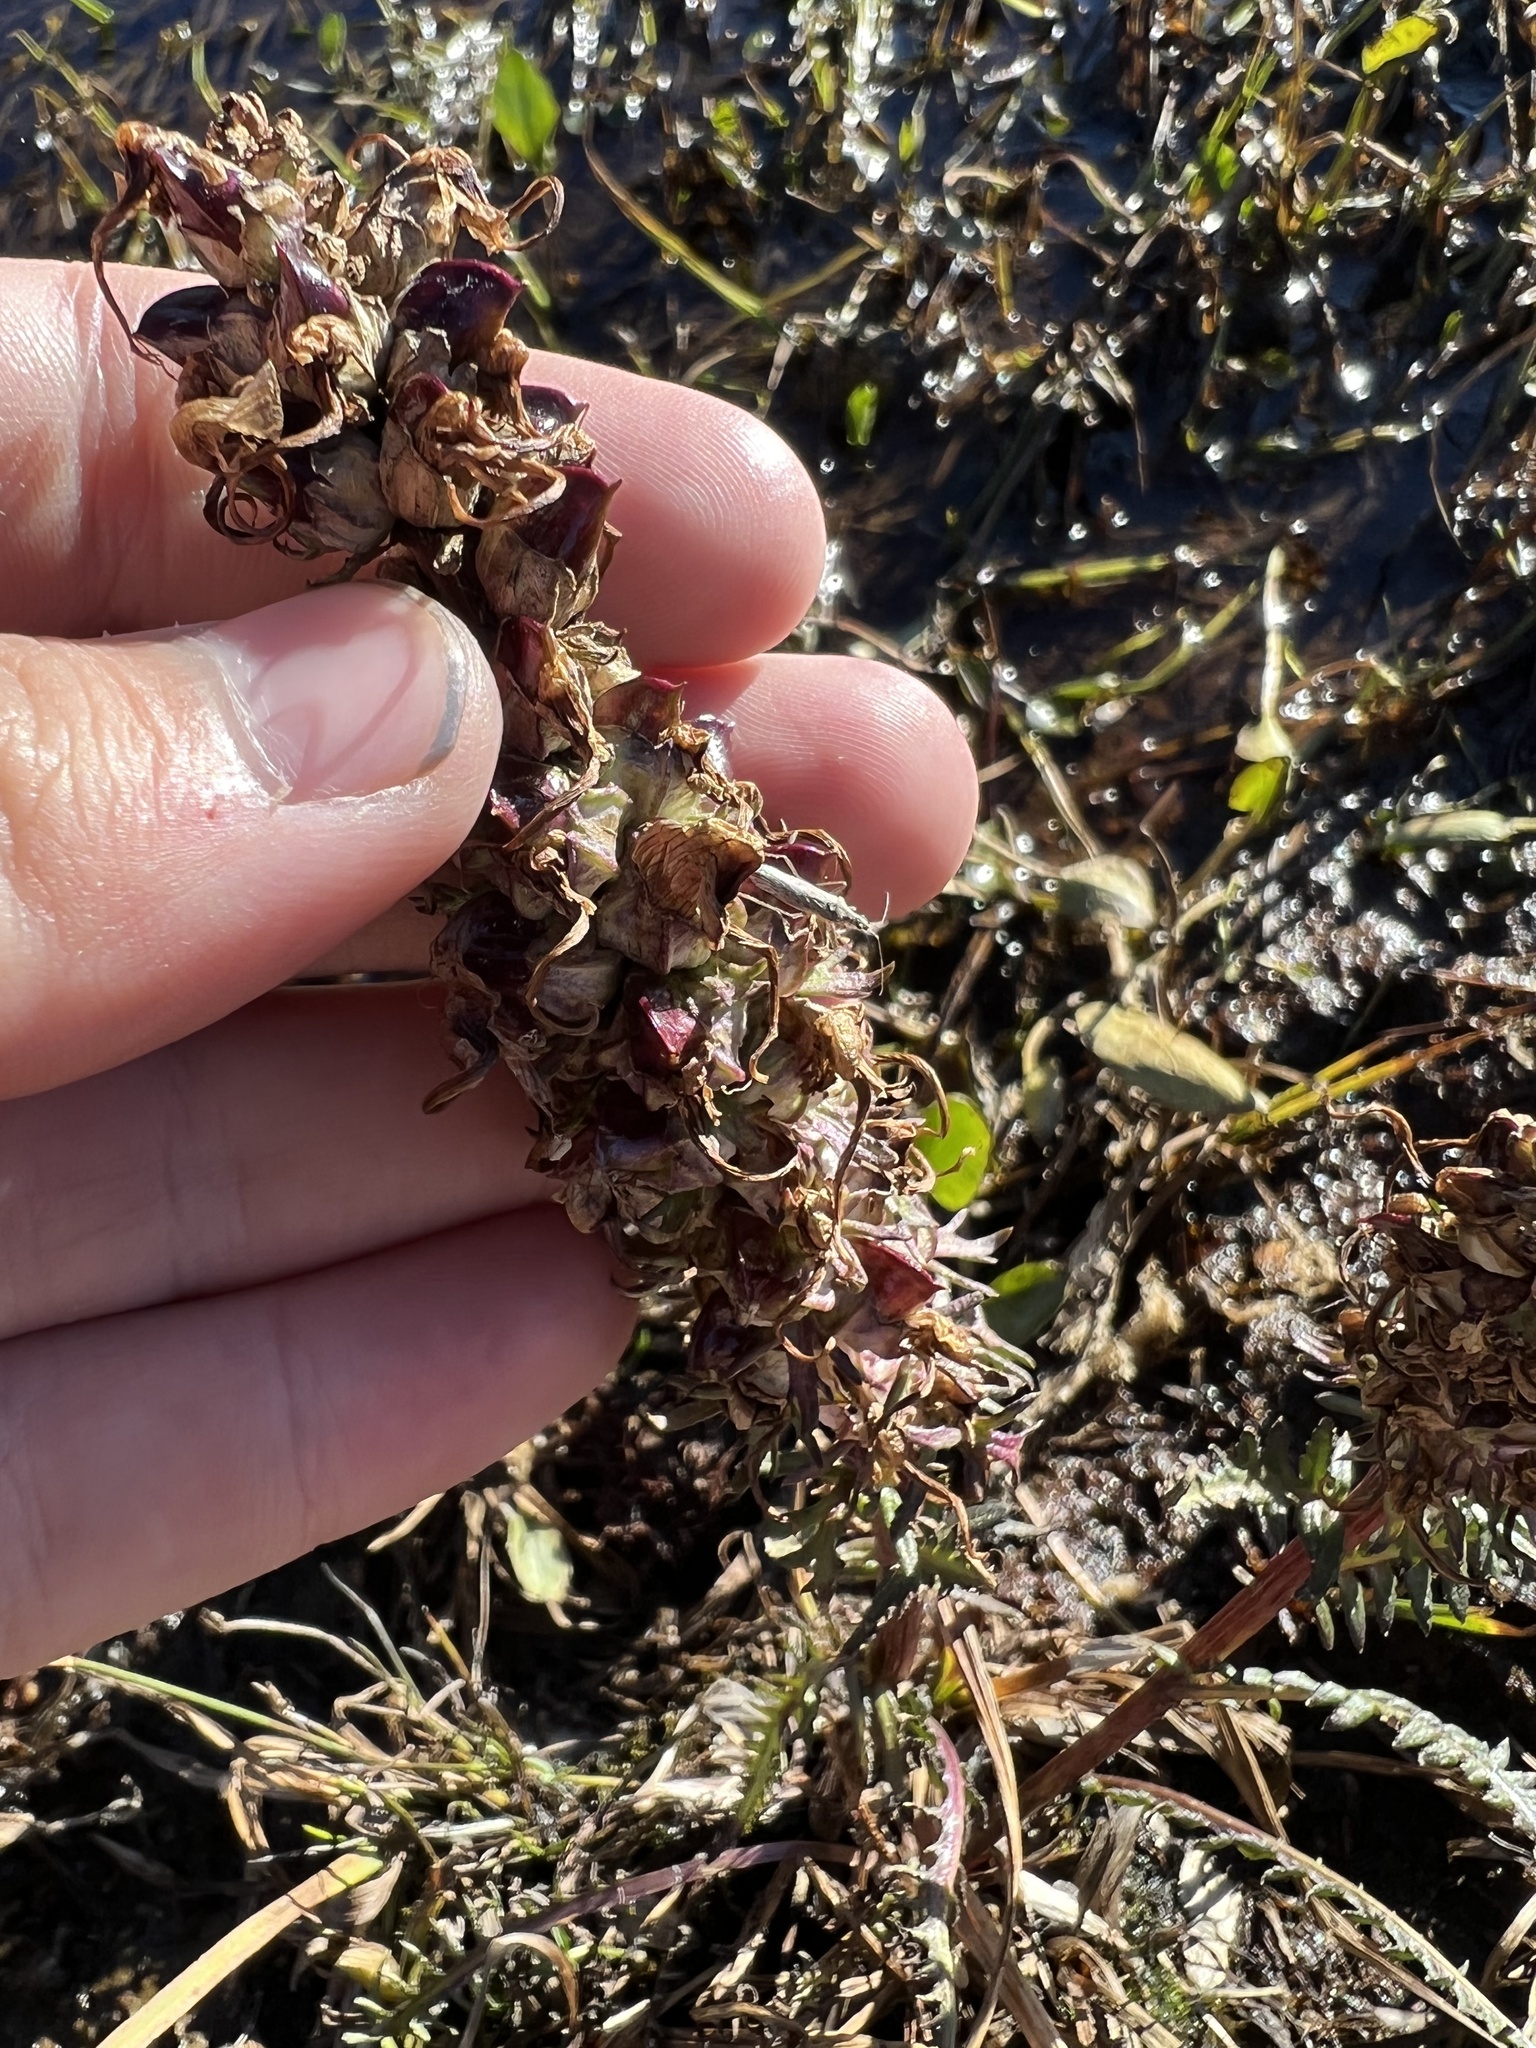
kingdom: Plantae
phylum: Tracheophyta
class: Magnoliopsida
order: Lamiales
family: Orobanchaceae
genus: Pedicularis
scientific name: Pedicularis groenlandica
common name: Elephant's-head
